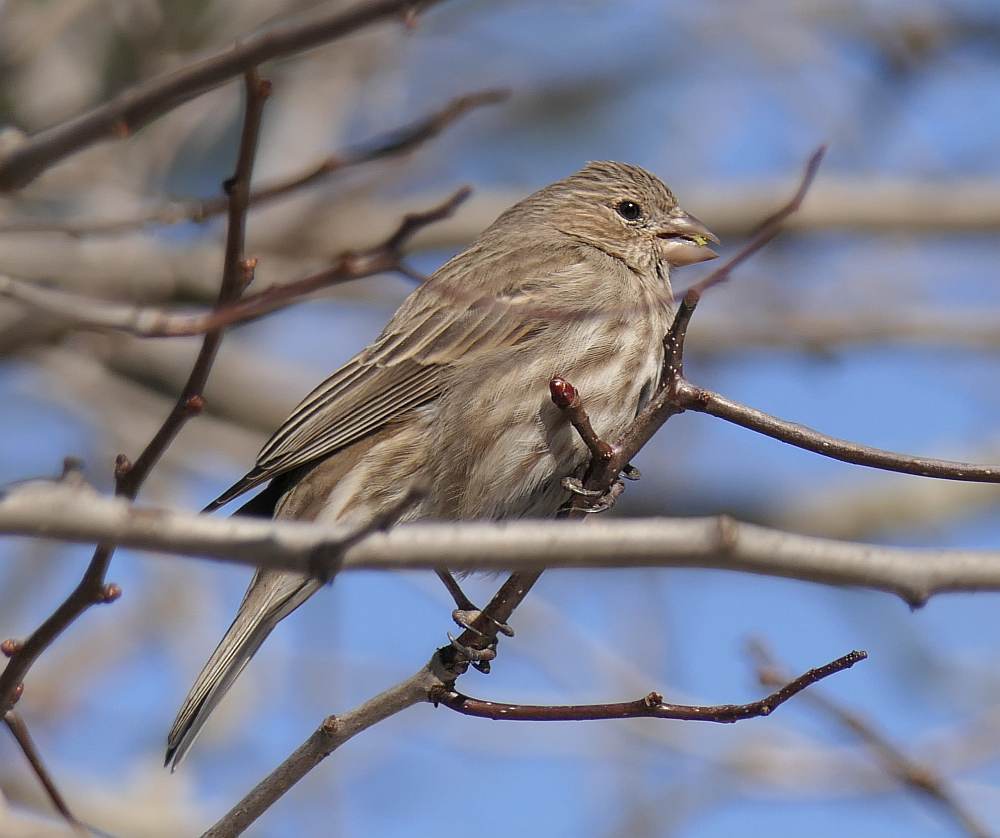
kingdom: Animalia
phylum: Chordata
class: Aves
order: Passeriformes
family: Fringillidae
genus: Haemorhous
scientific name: Haemorhous mexicanus
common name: House finch
